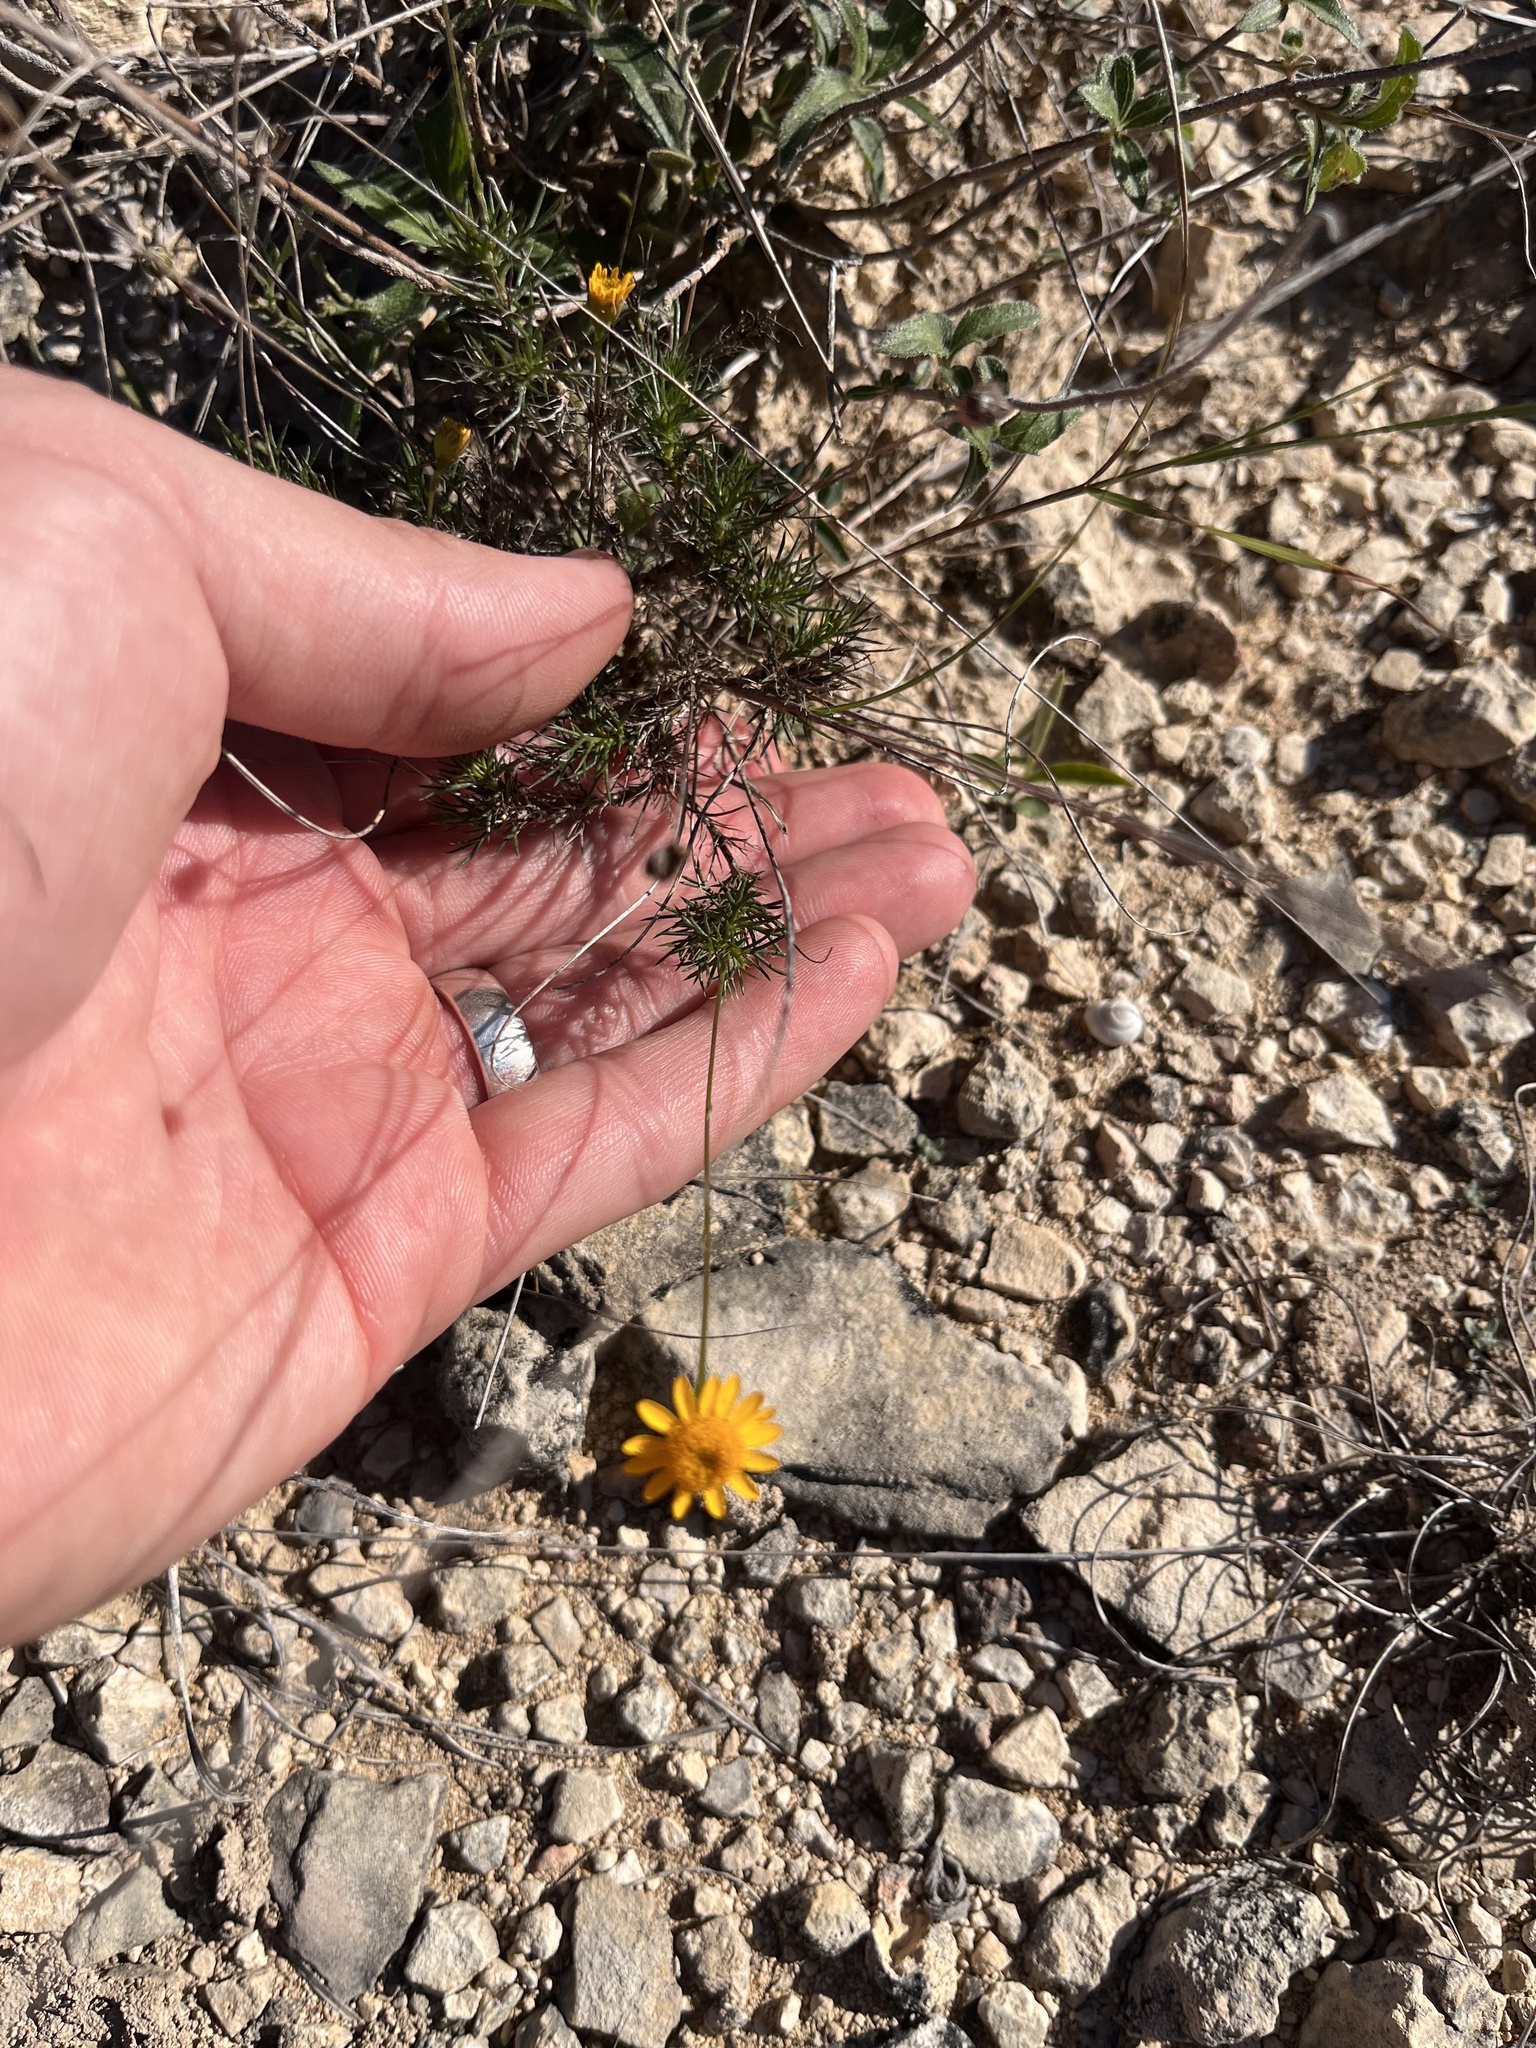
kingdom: Plantae
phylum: Tracheophyta
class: Magnoliopsida
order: Asterales
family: Asteraceae
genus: Thymophylla
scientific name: Thymophylla pentachaeta
